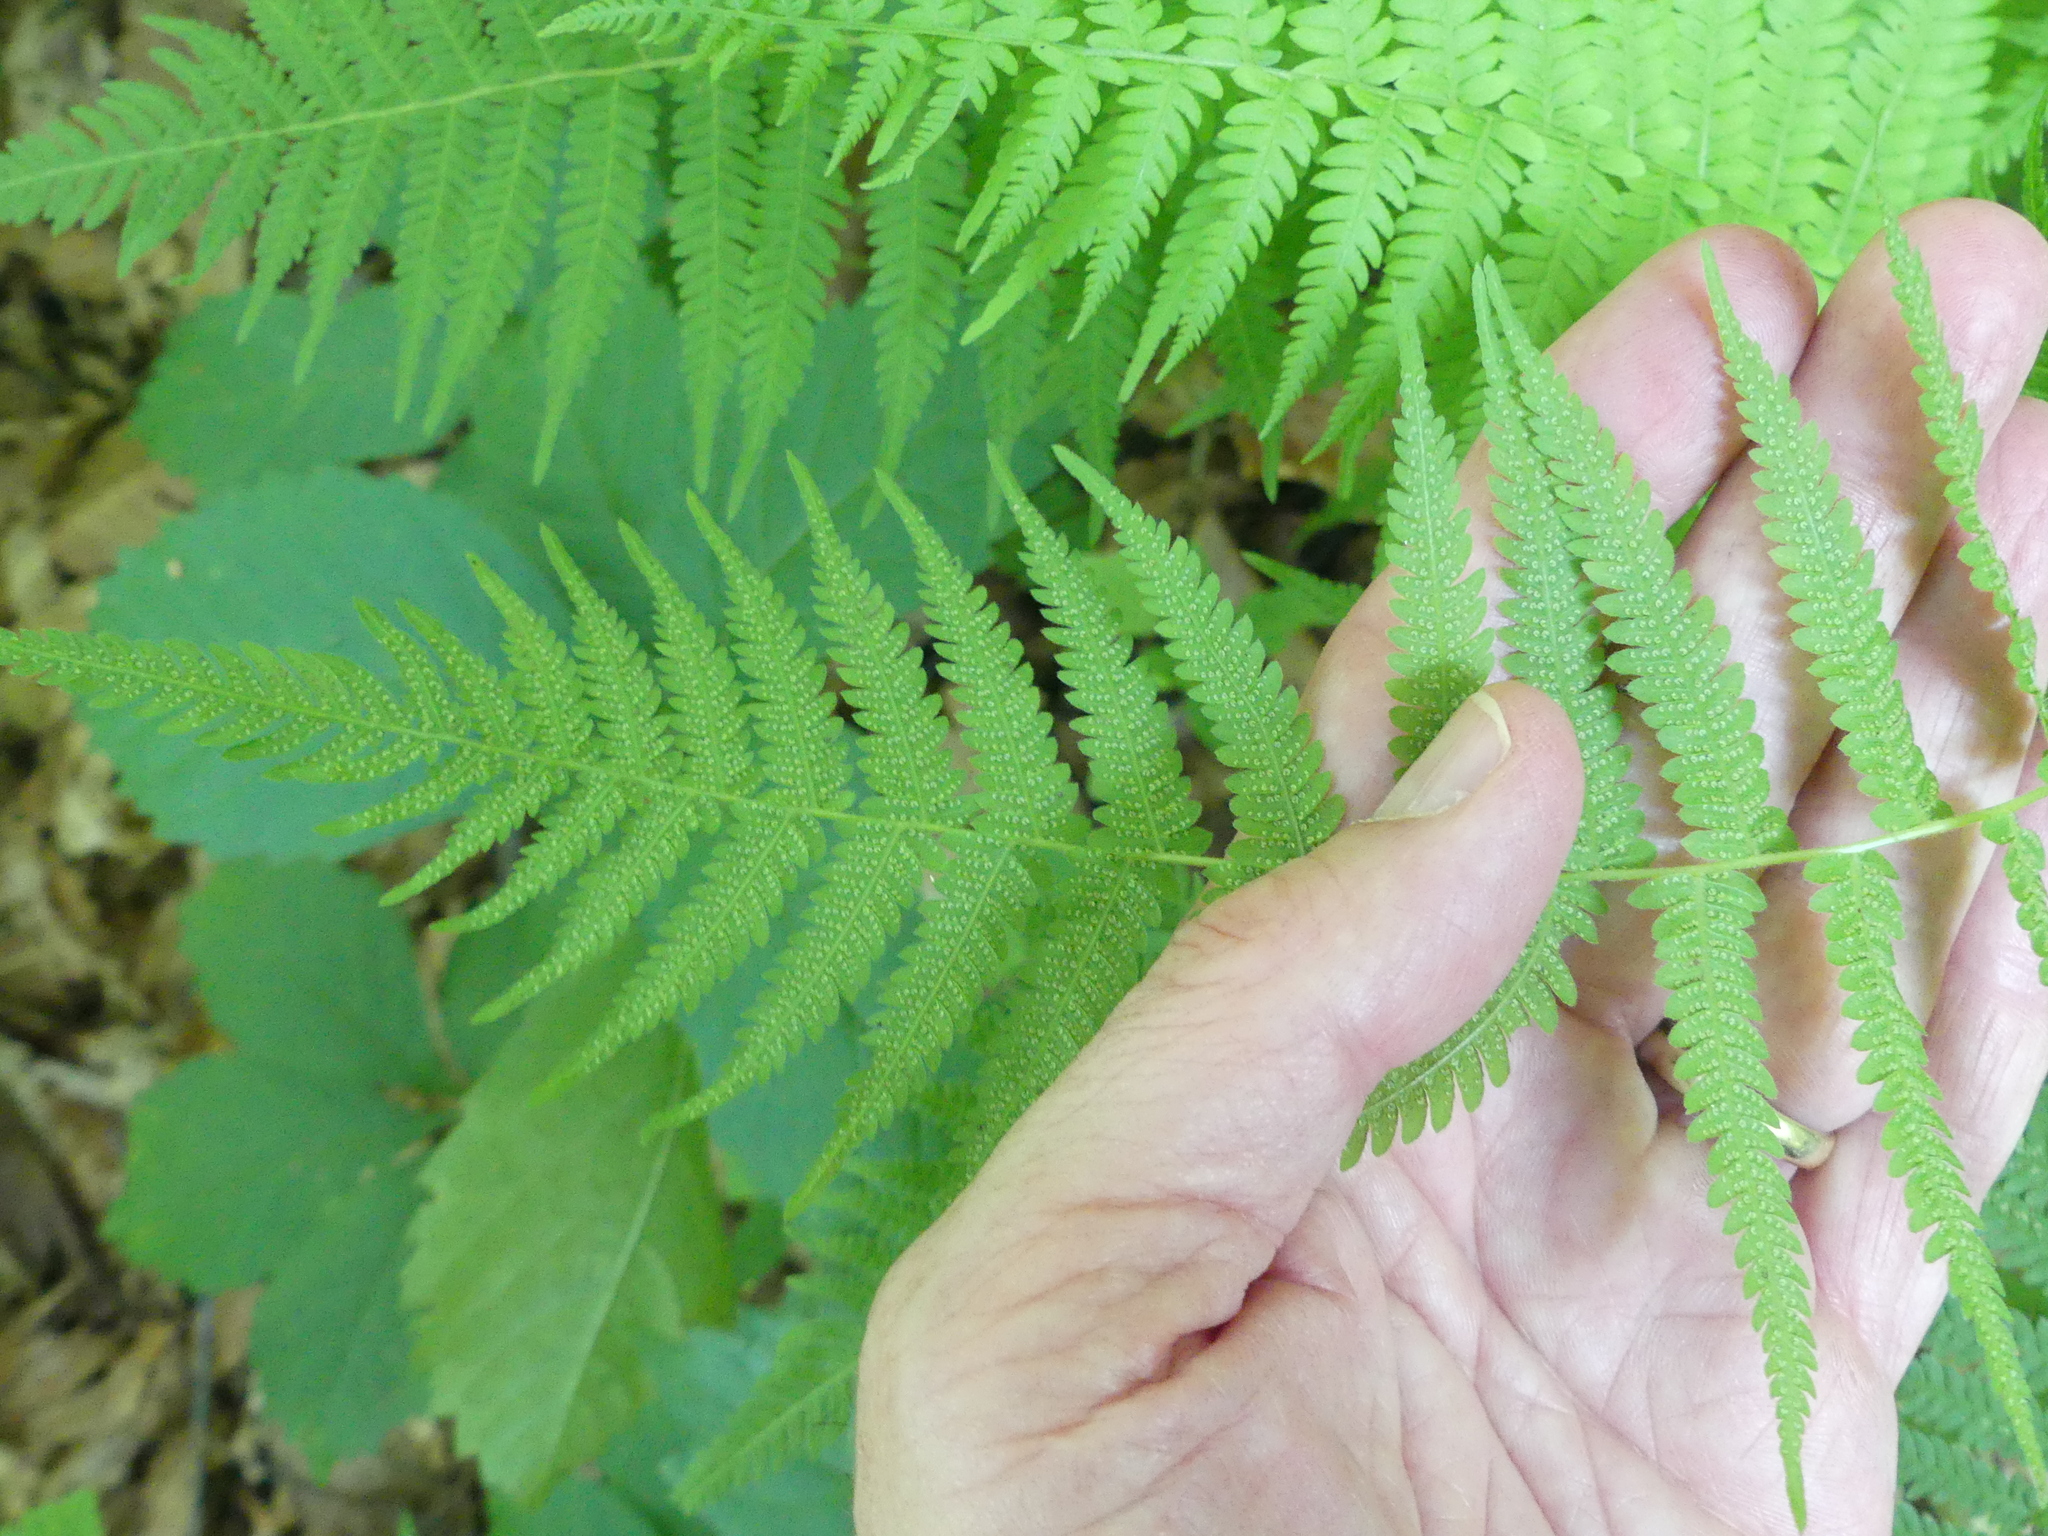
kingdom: Plantae
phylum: Tracheophyta
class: Polypodiopsida
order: Polypodiales
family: Thelypteridaceae
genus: Amauropelta
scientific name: Amauropelta noveboracensis
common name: New york fern
